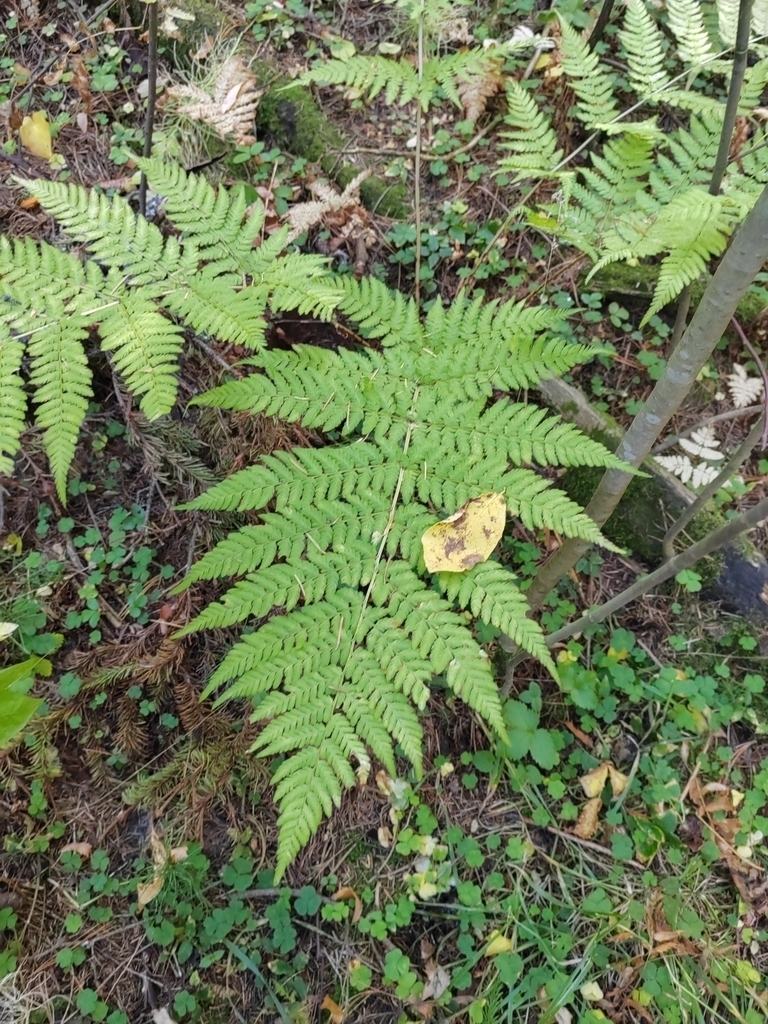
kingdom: Plantae
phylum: Tracheophyta
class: Polypodiopsida
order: Polypodiales
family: Dryopteridaceae
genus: Dryopteris
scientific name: Dryopteris expansa
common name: Northern buckler fern
